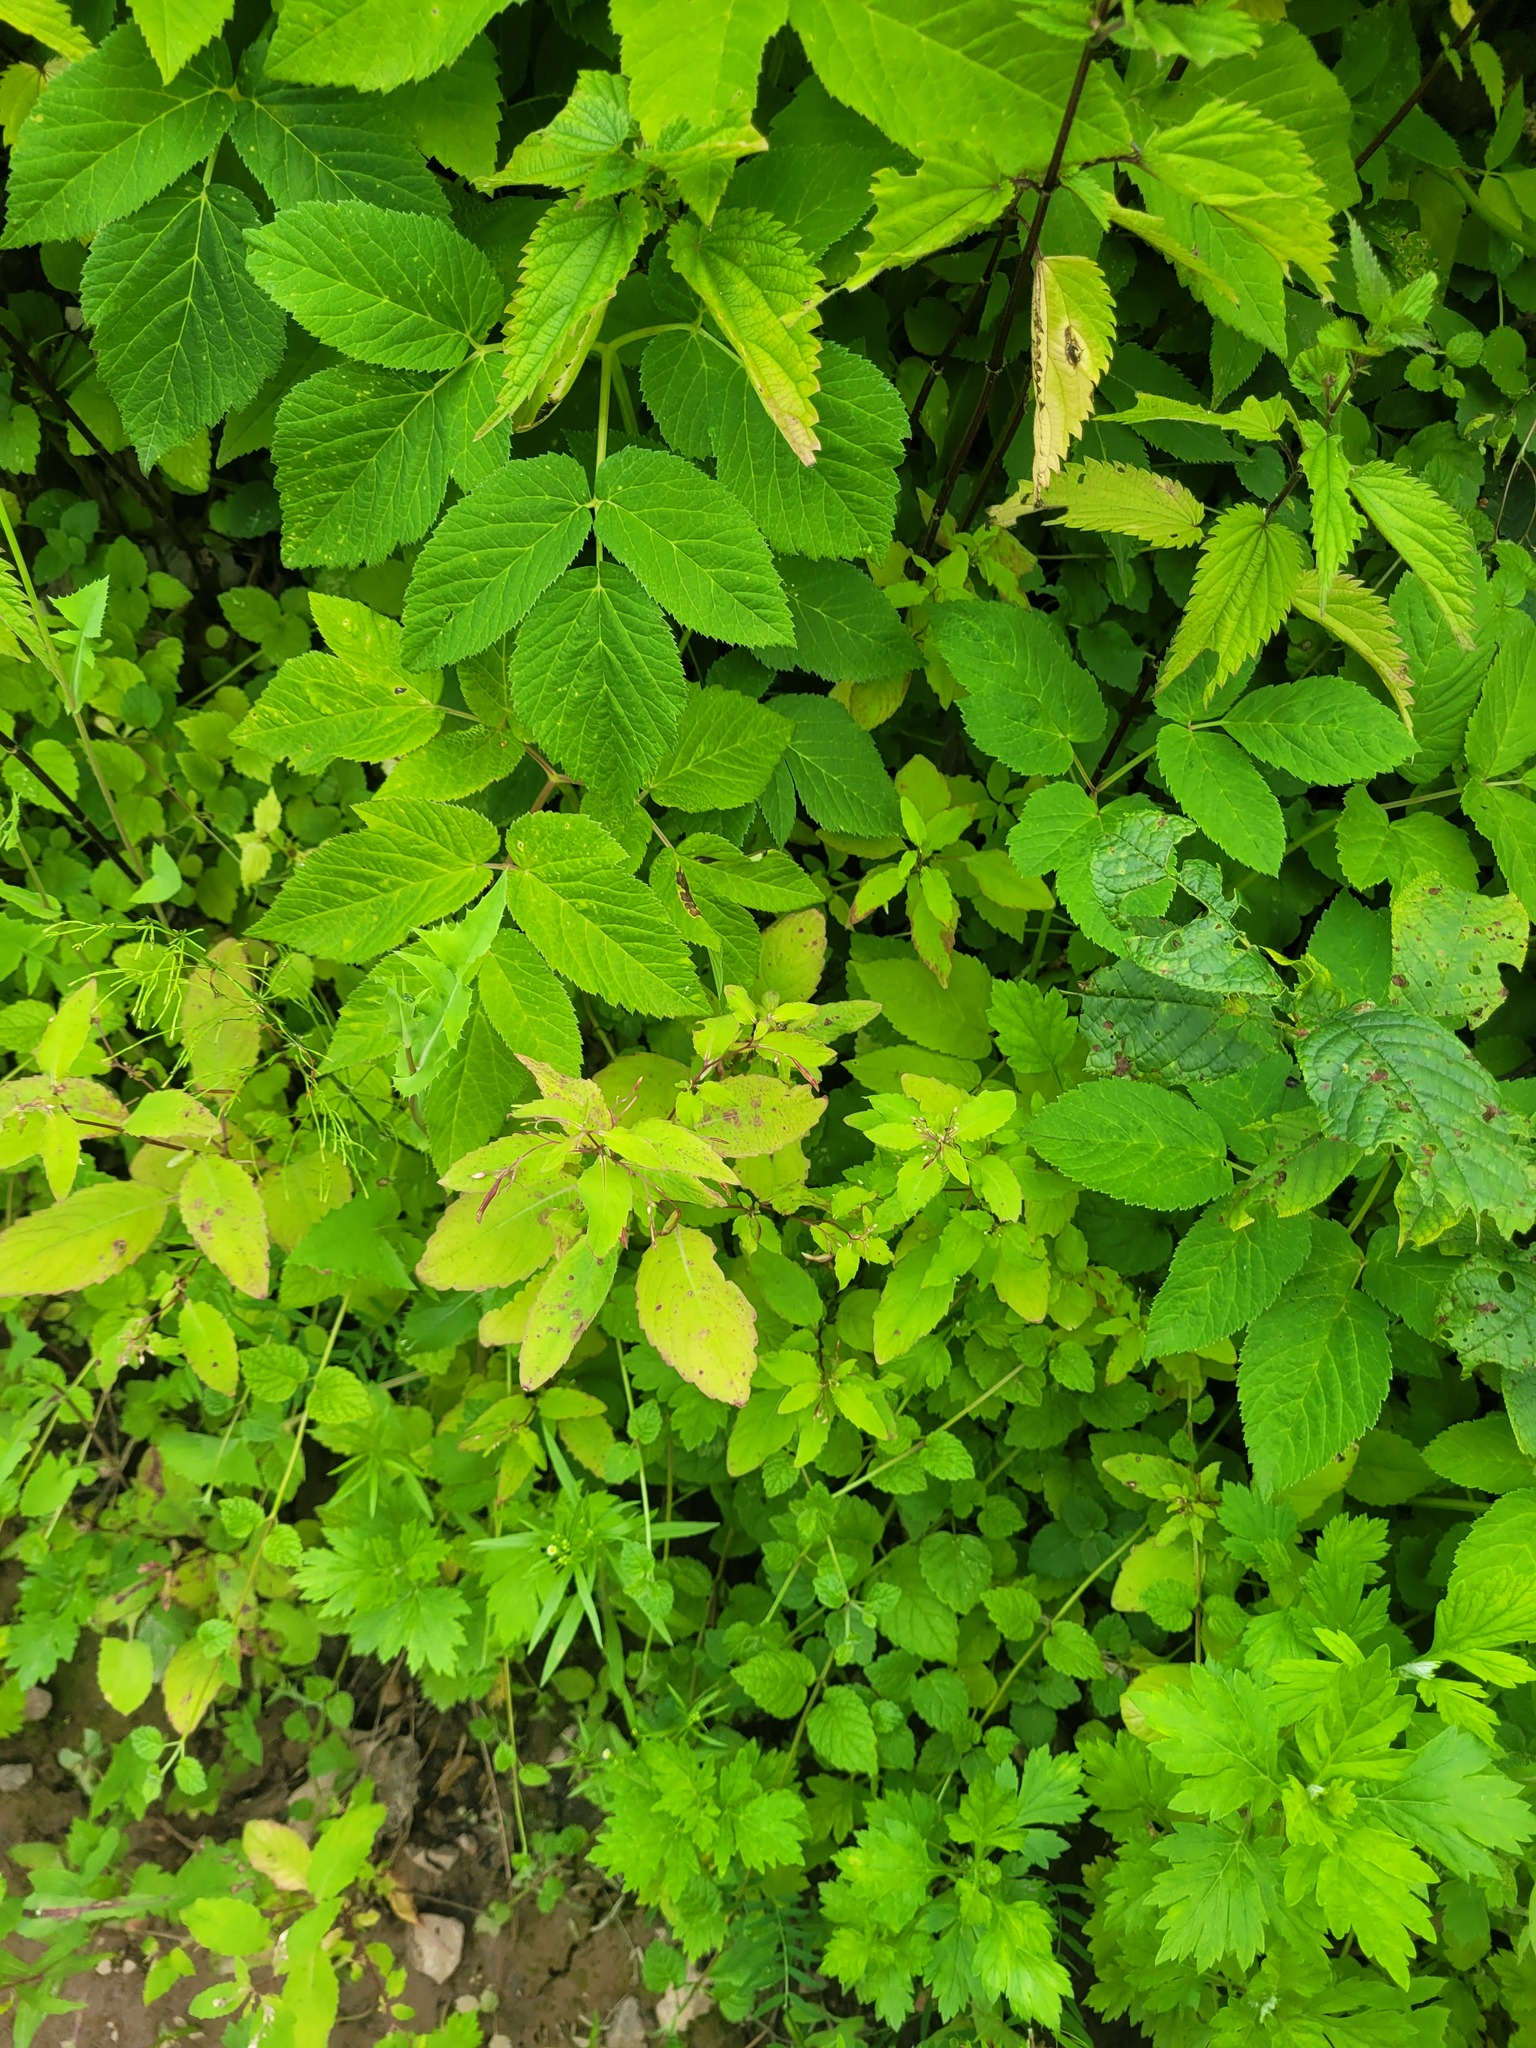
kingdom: Plantae
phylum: Tracheophyta
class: Magnoliopsida
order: Ericales
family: Balsaminaceae
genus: Impatiens
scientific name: Impatiens noli-tangere
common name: Touch-me-not balsam
